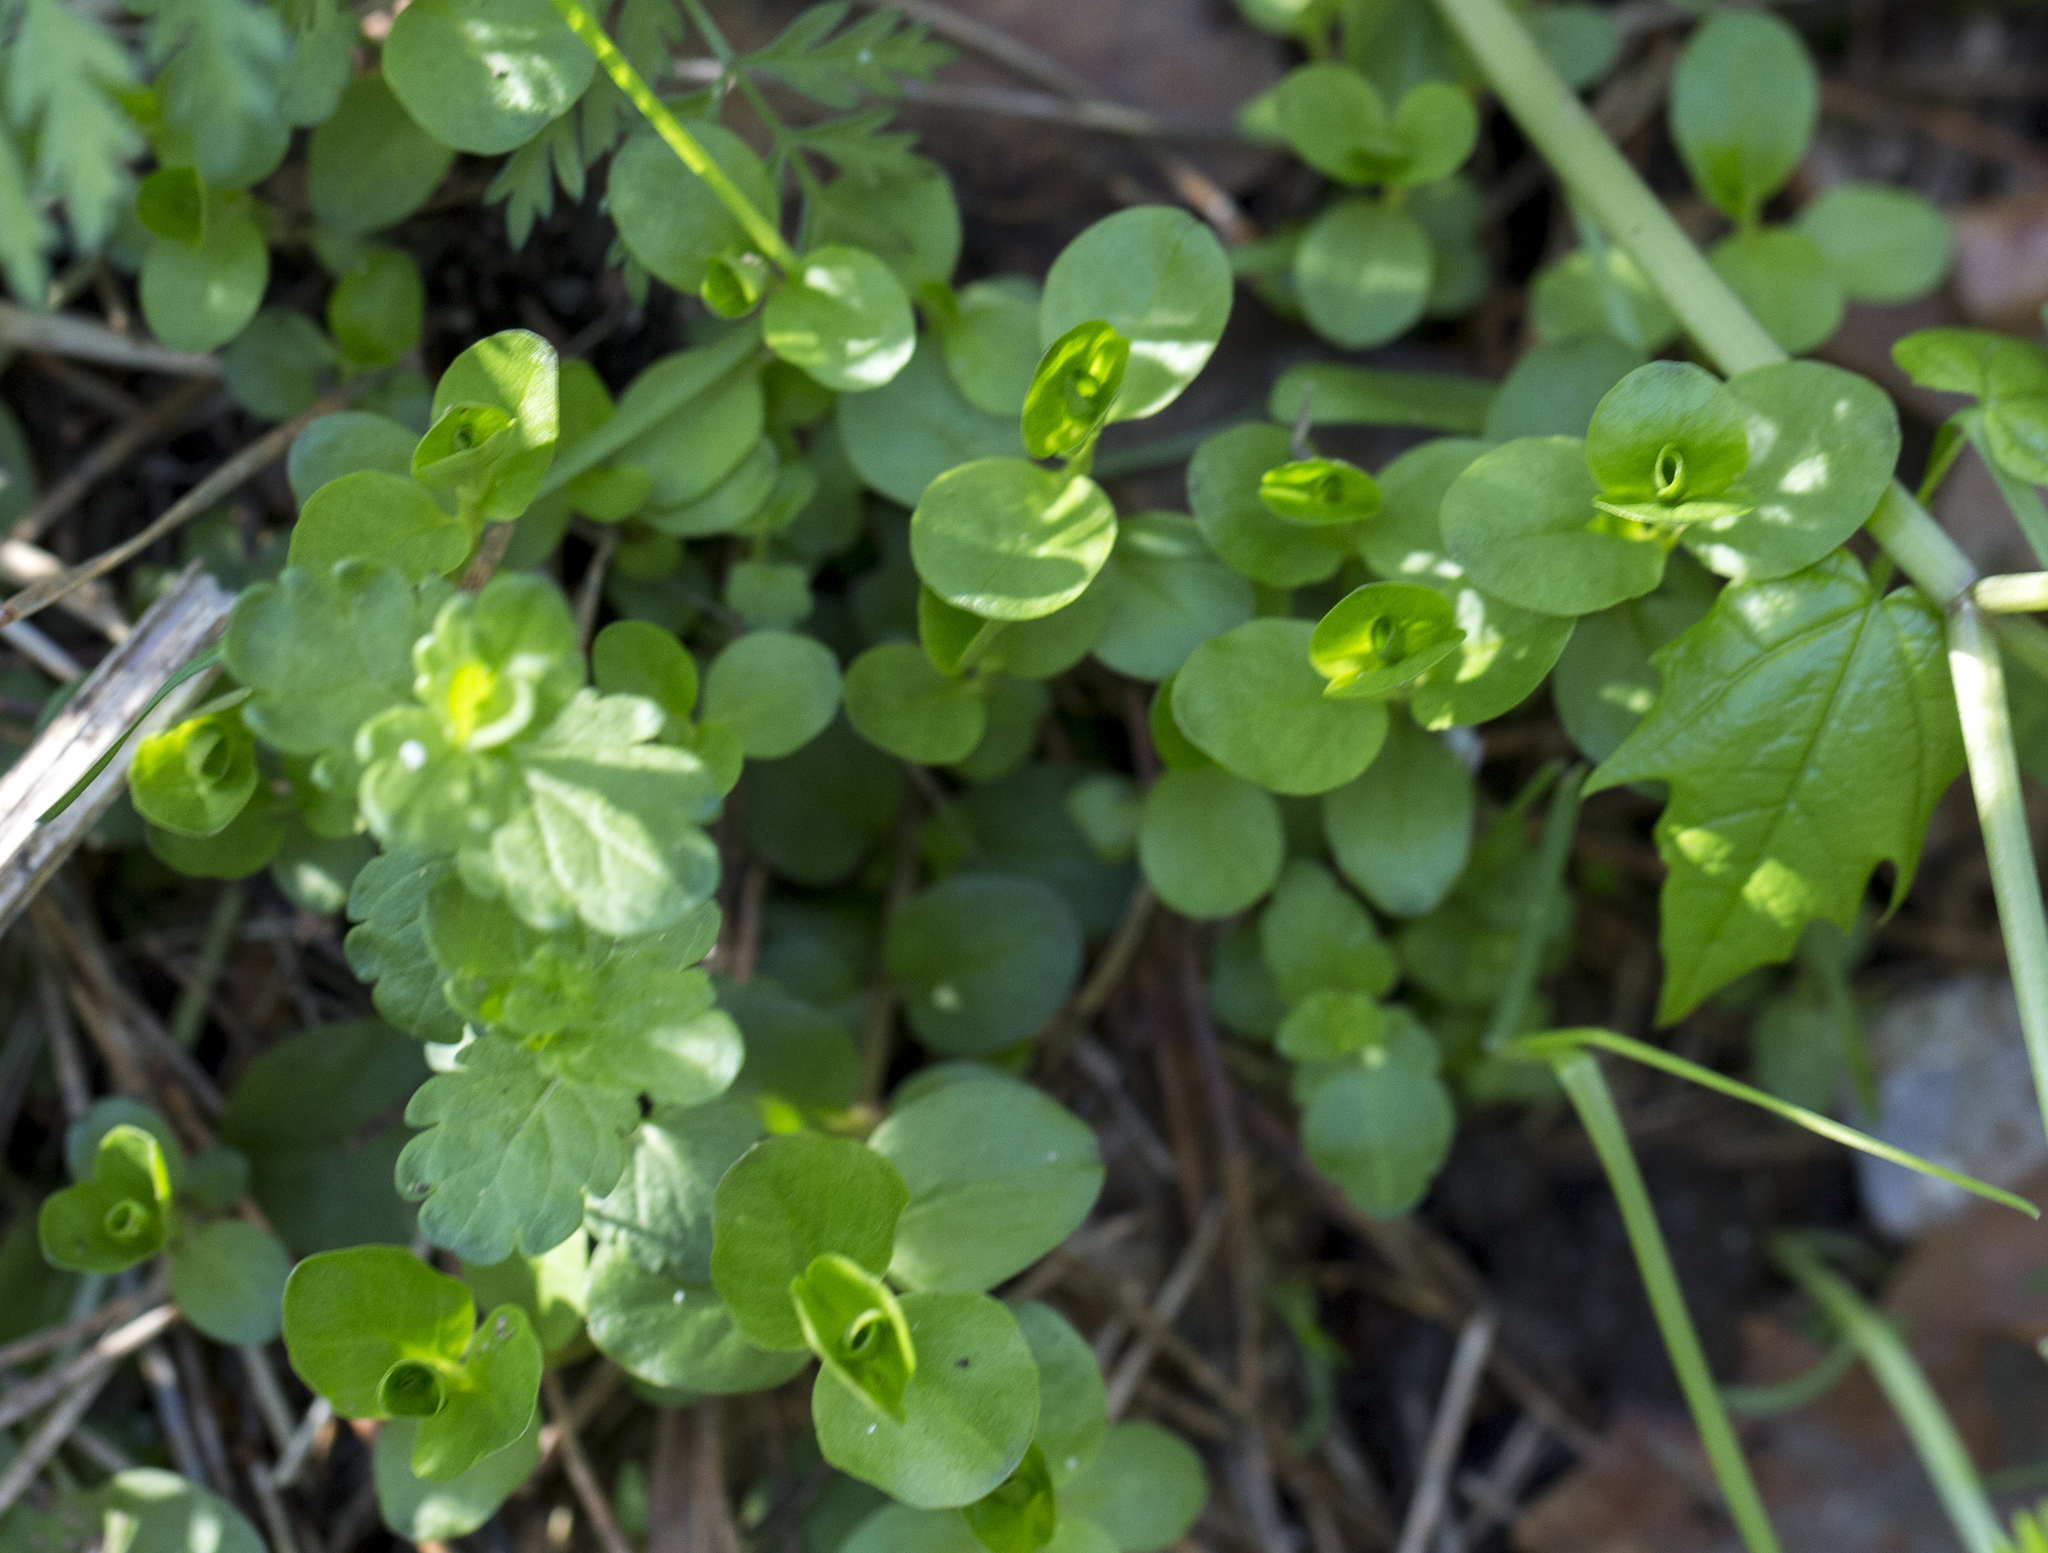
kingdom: Plantae
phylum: Tracheophyta
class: Magnoliopsida
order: Ericales
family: Primulaceae
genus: Lysimachia
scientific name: Lysimachia nummularia
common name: Moneywort
